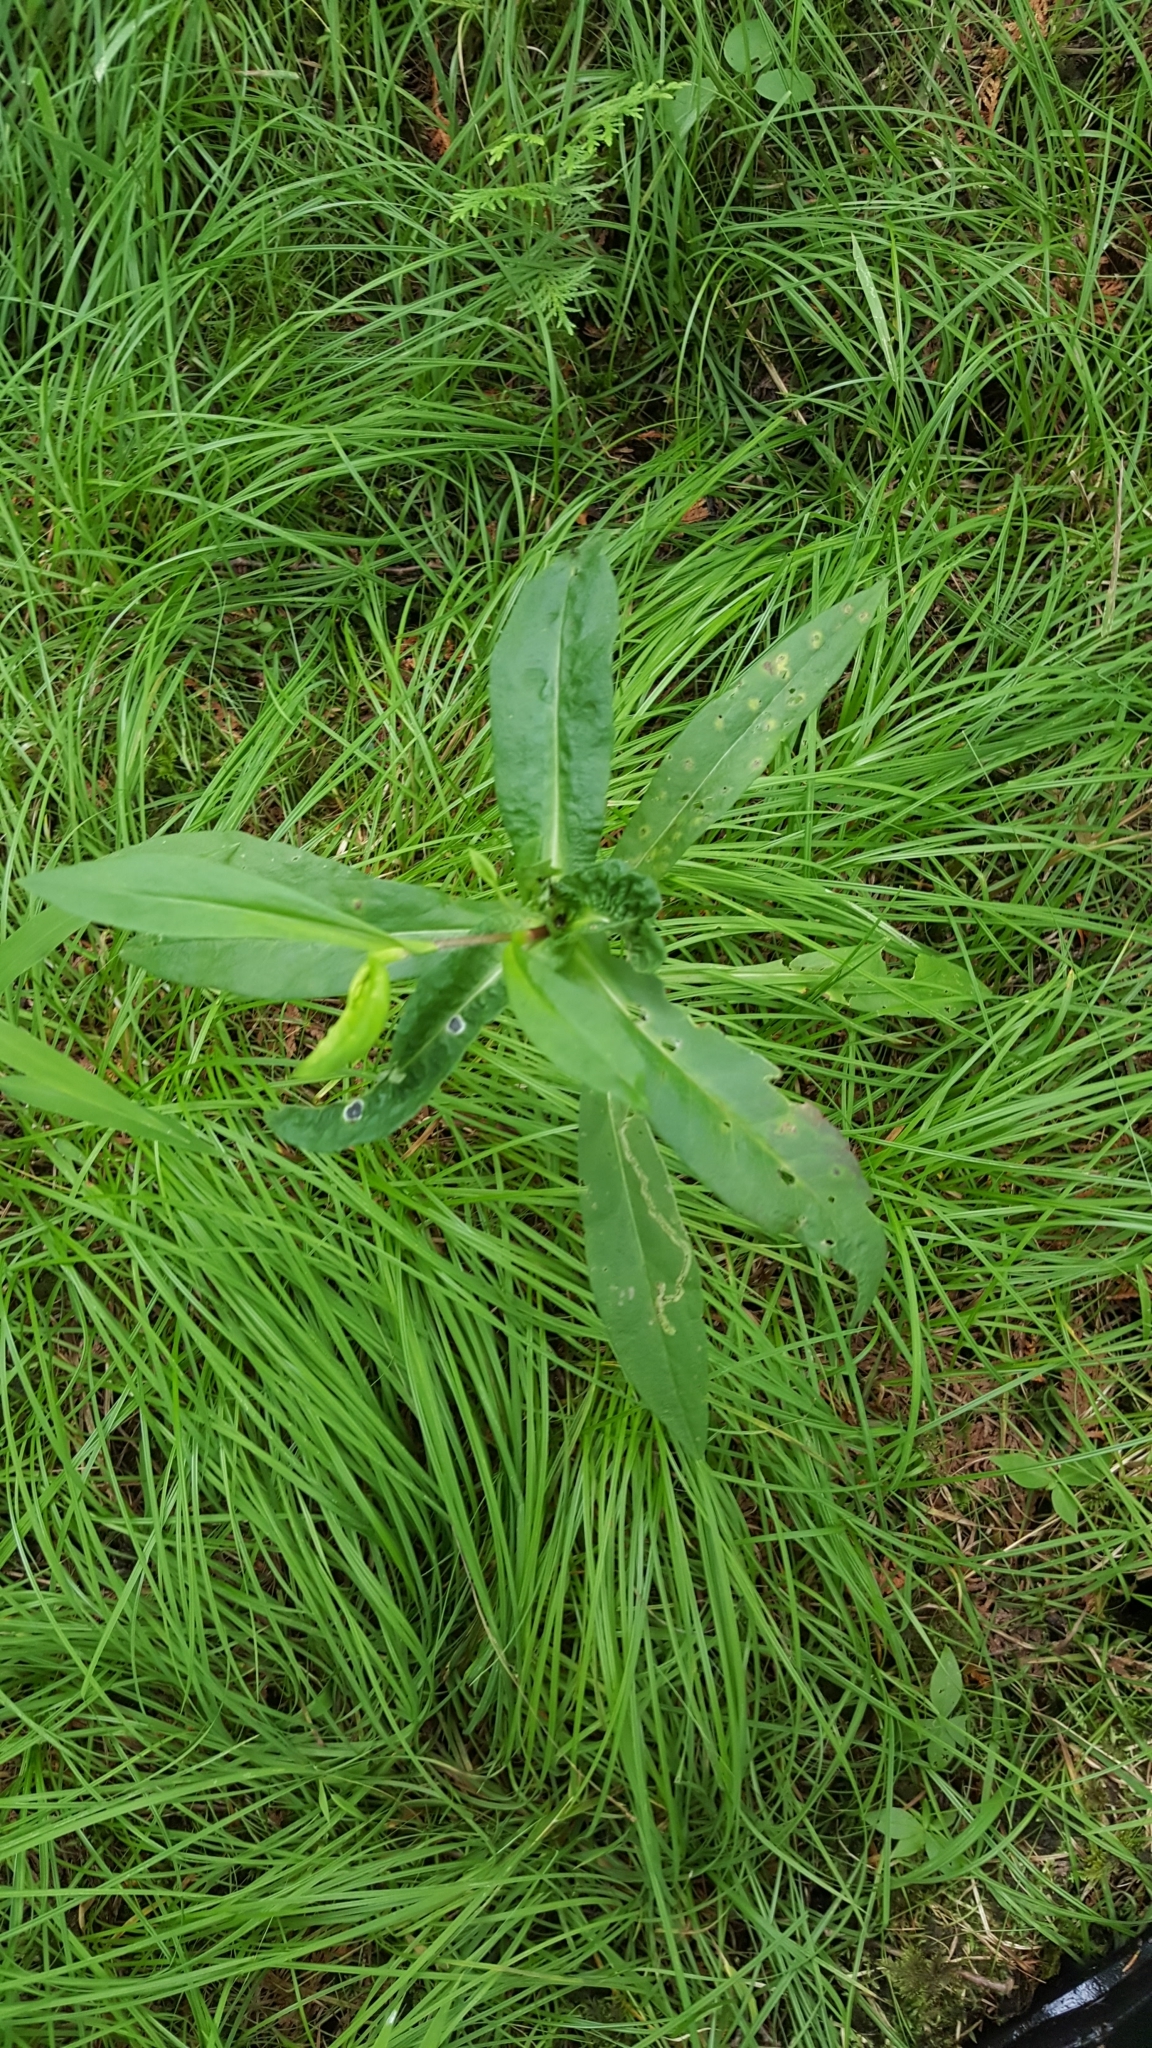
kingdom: Plantae
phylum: Tracheophyta
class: Magnoliopsida
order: Asterales
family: Asteraceae
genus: Symphyotrichum
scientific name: Symphyotrichum puniceum
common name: Bog aster
